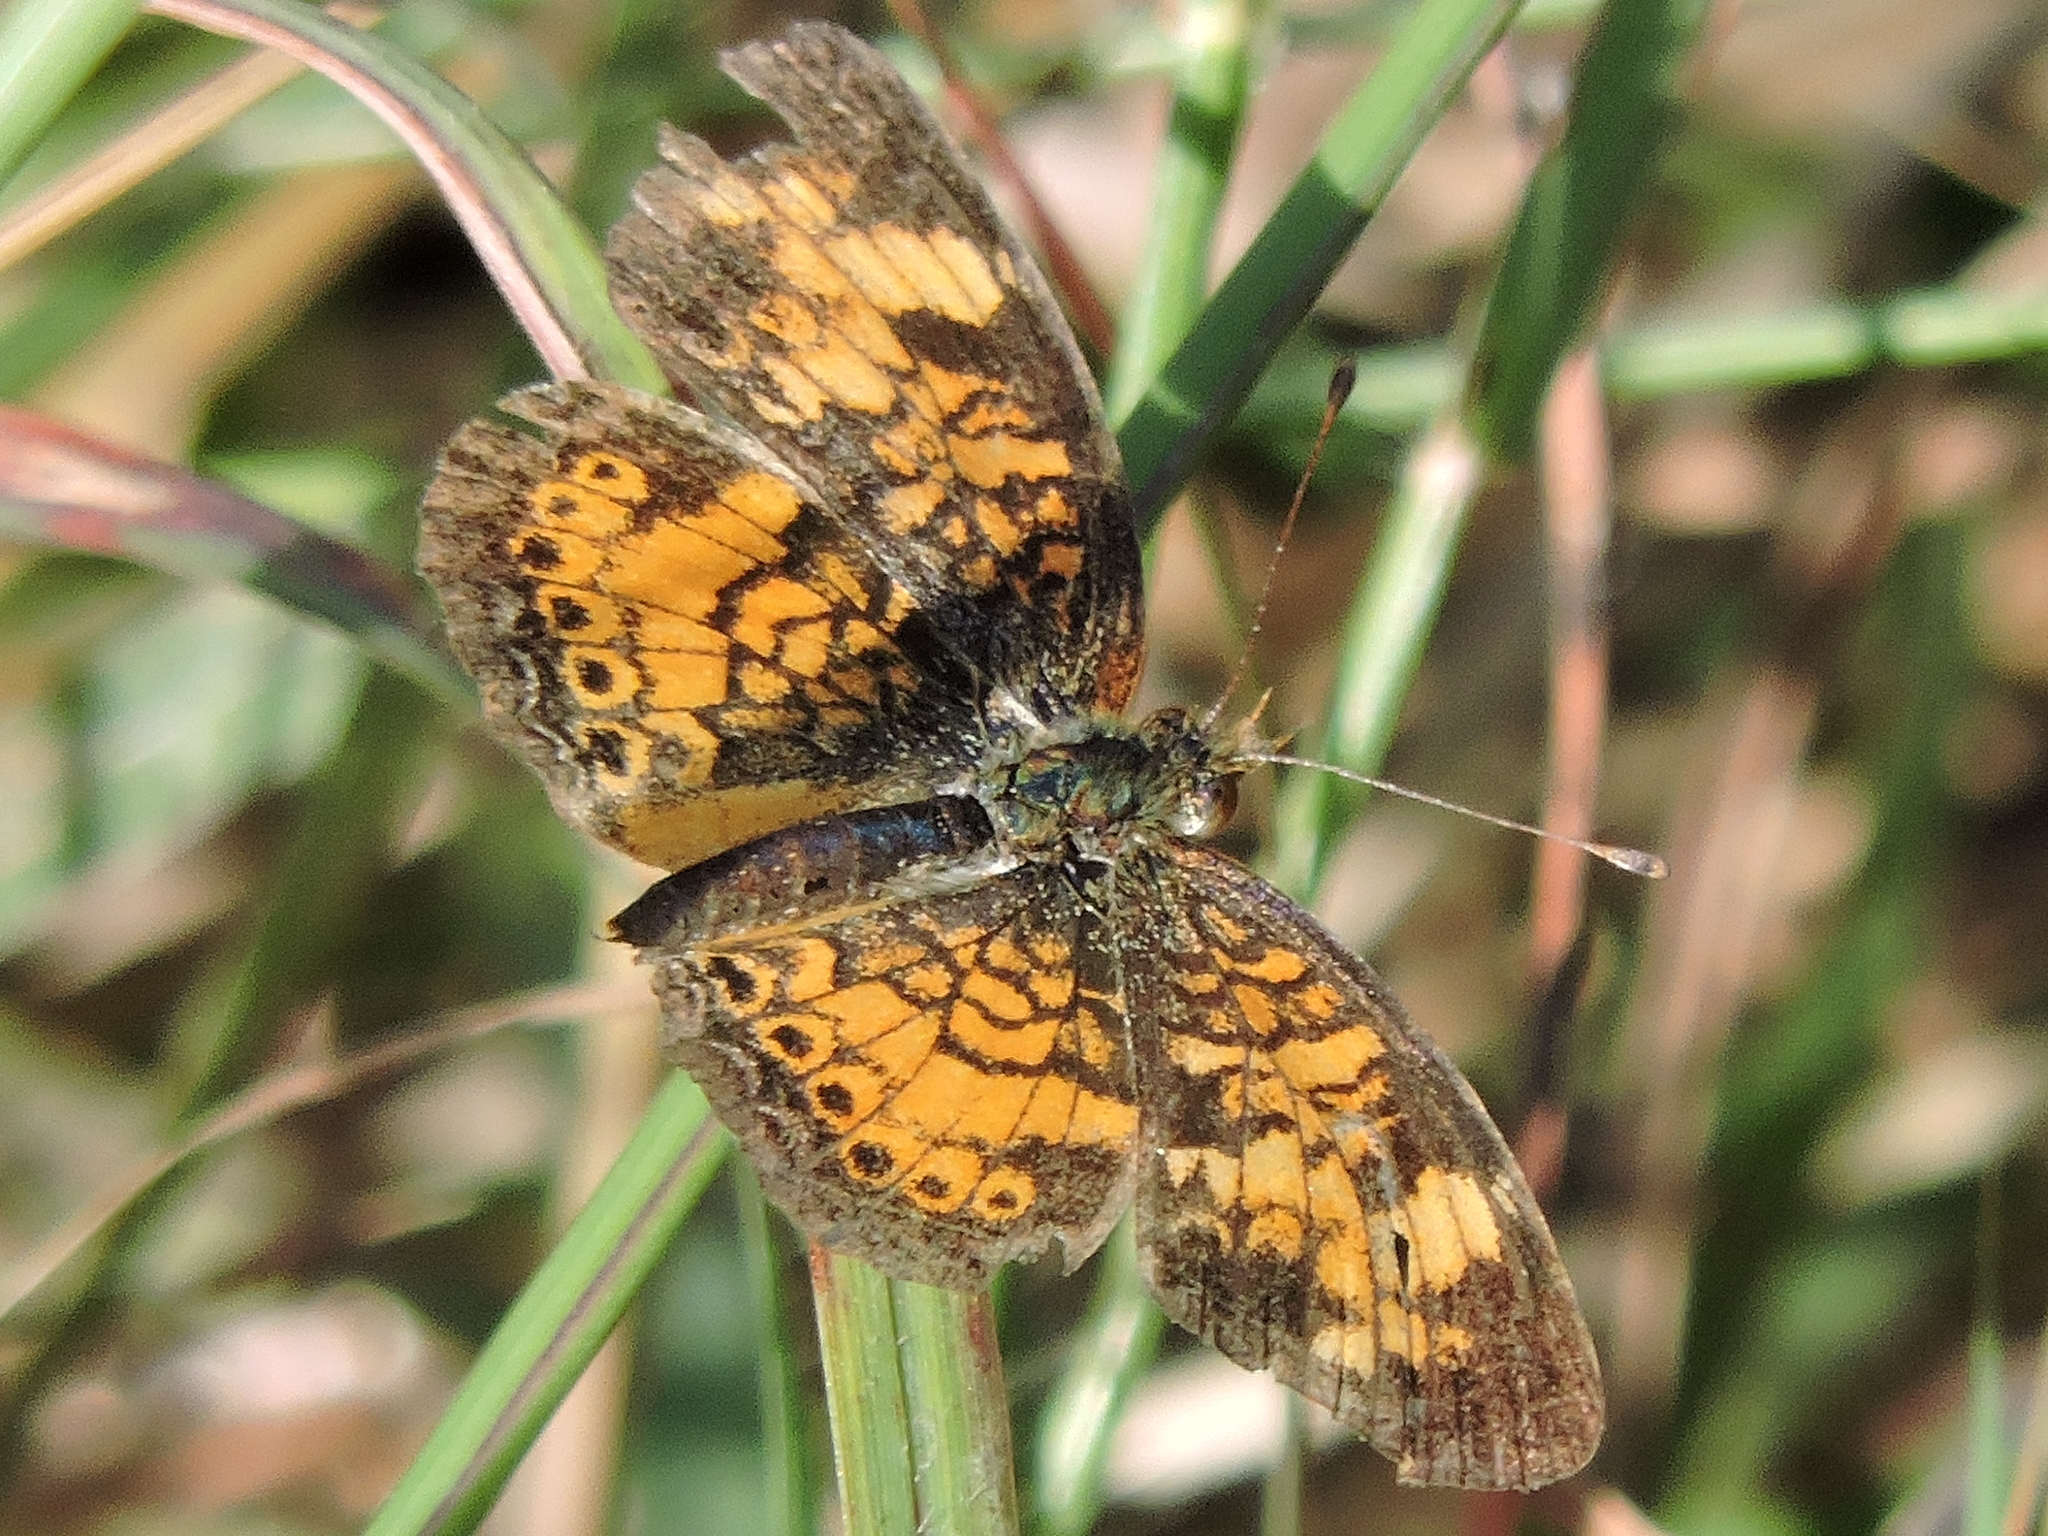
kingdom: Animalia
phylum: Arthropoda
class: Insecta
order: Lepidoptera
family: Nymphalidae
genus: Phyciodes
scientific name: Phyciodes tharos
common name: Pearl crescent
